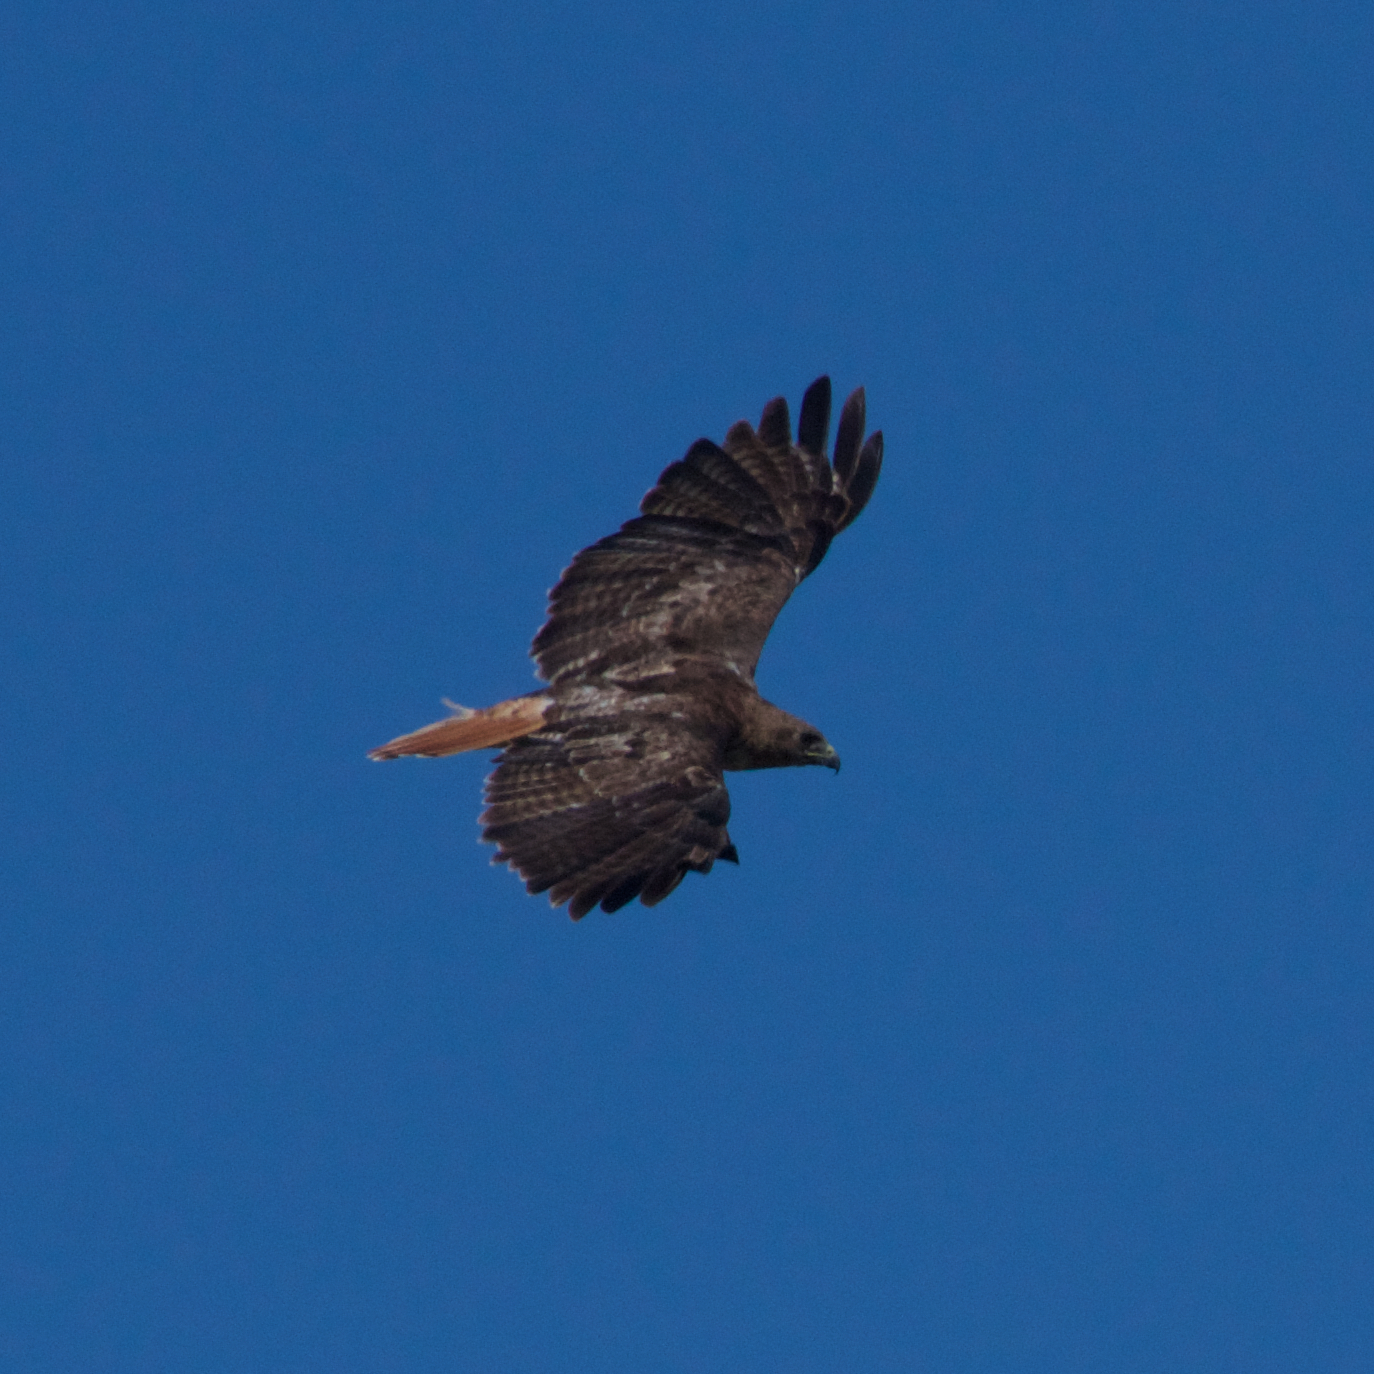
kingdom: Animalia
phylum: Chordata
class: Aves
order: Accipitriformes
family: Accipitridae
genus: Buteo
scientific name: Buteo jamaicensis
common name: Red-tailed hawk
